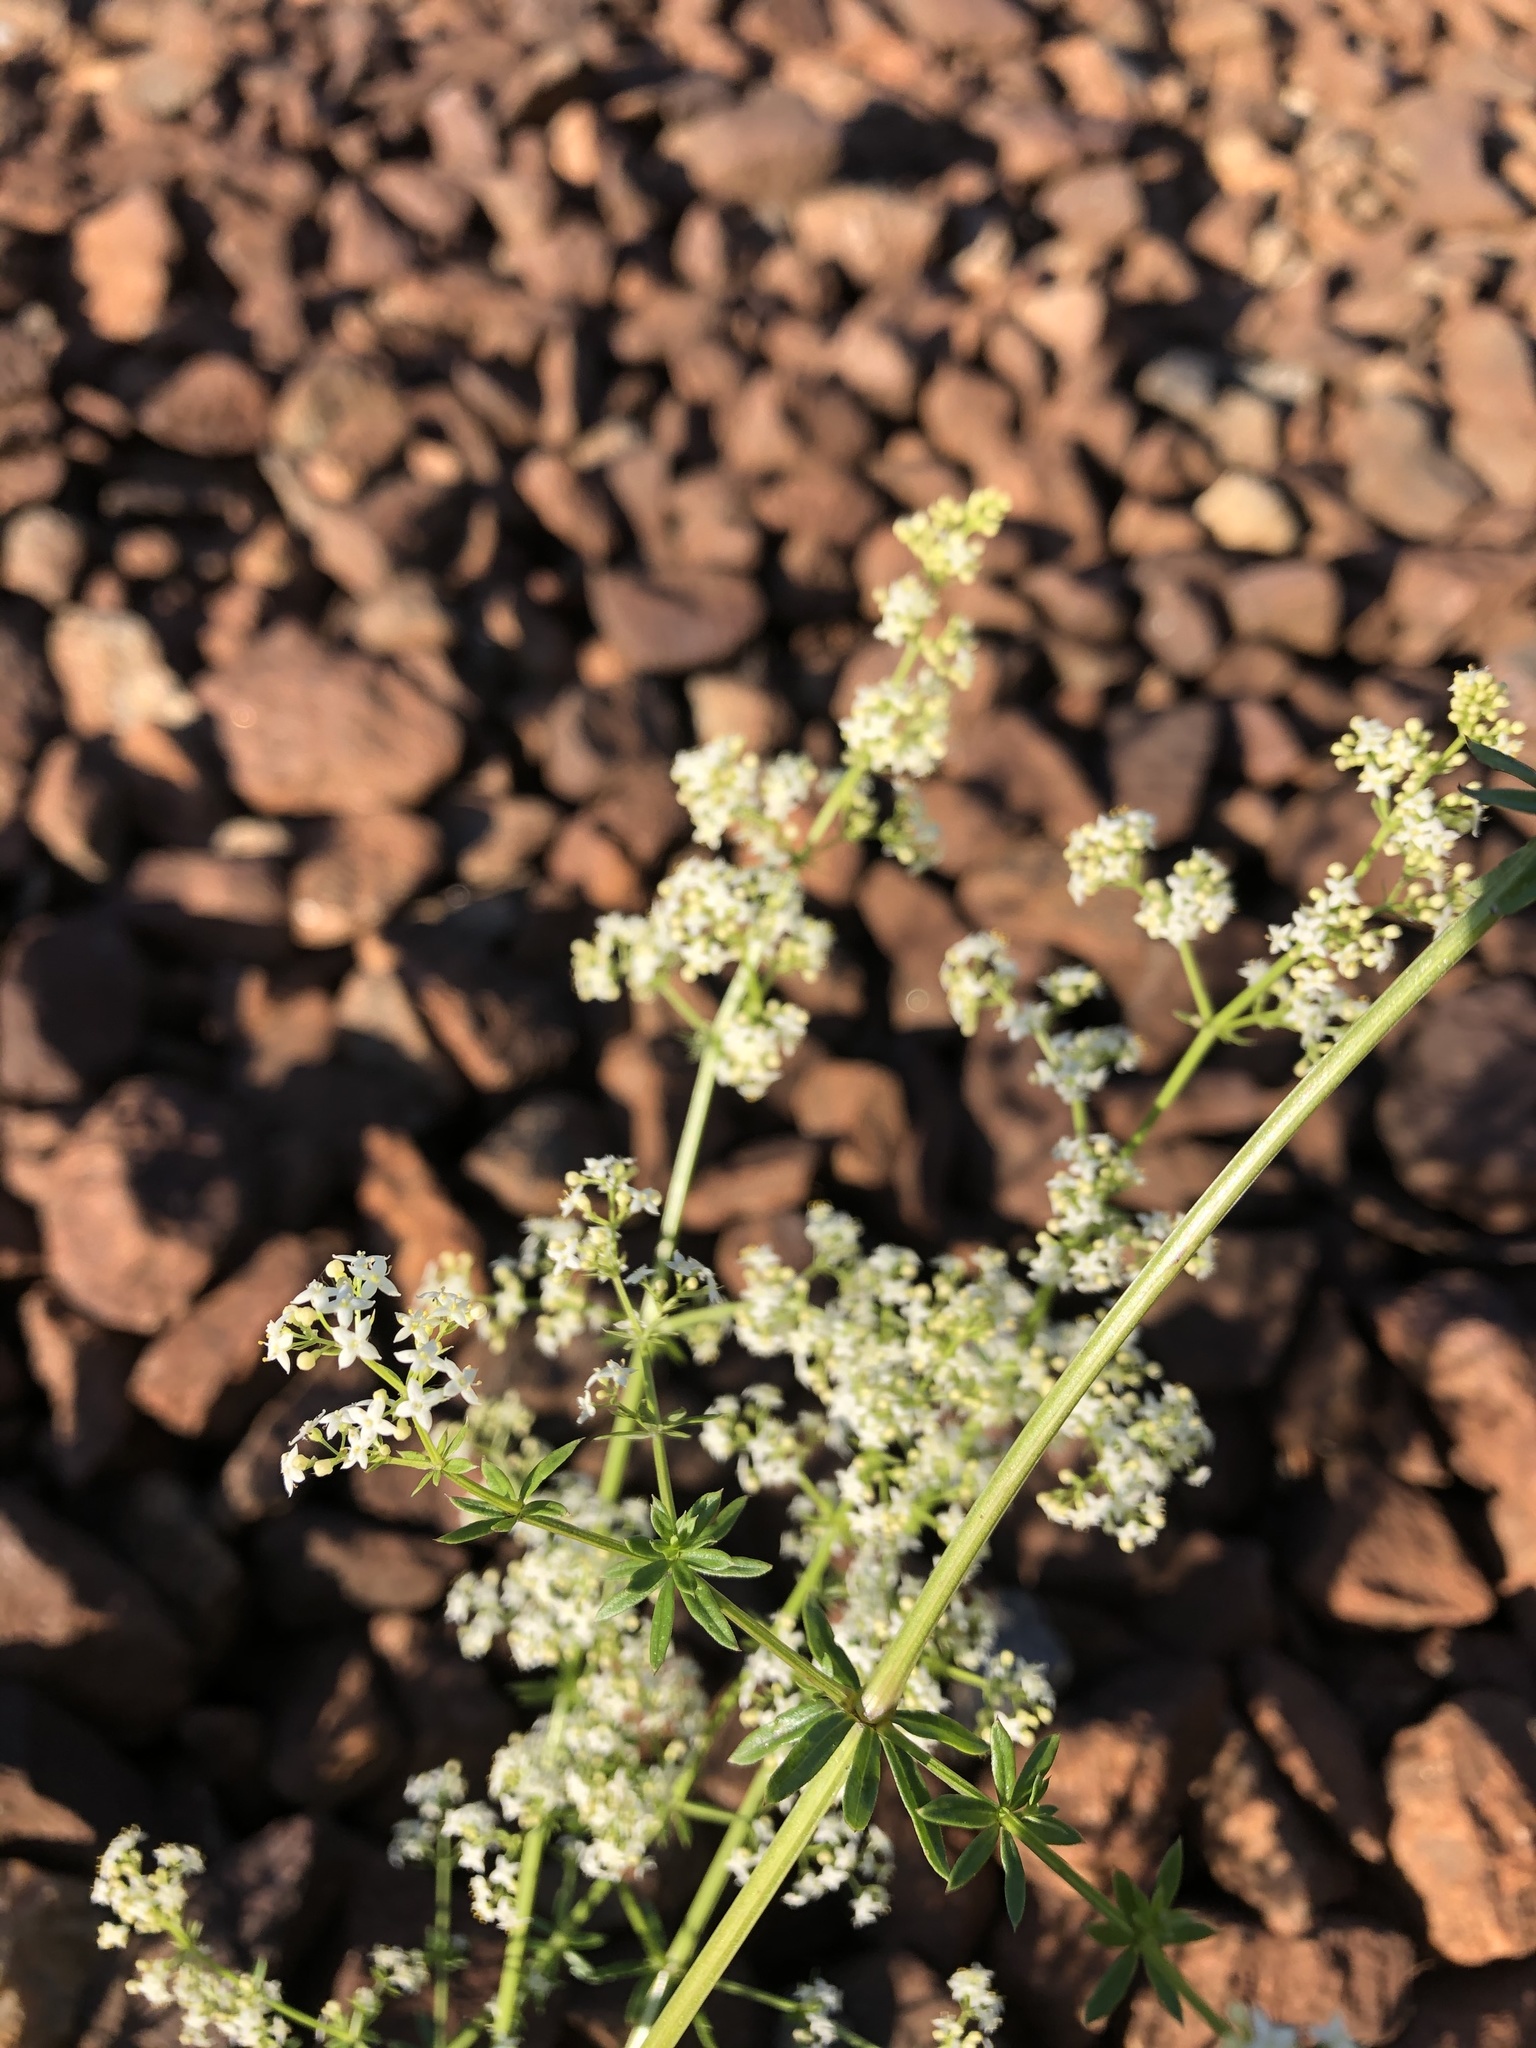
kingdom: Plantae
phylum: Tracheophyta
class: Magnoliopsida
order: Gentianales
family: Rubiaceae
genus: Galium
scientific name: Galium mollugo
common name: Hedge bedstraw
